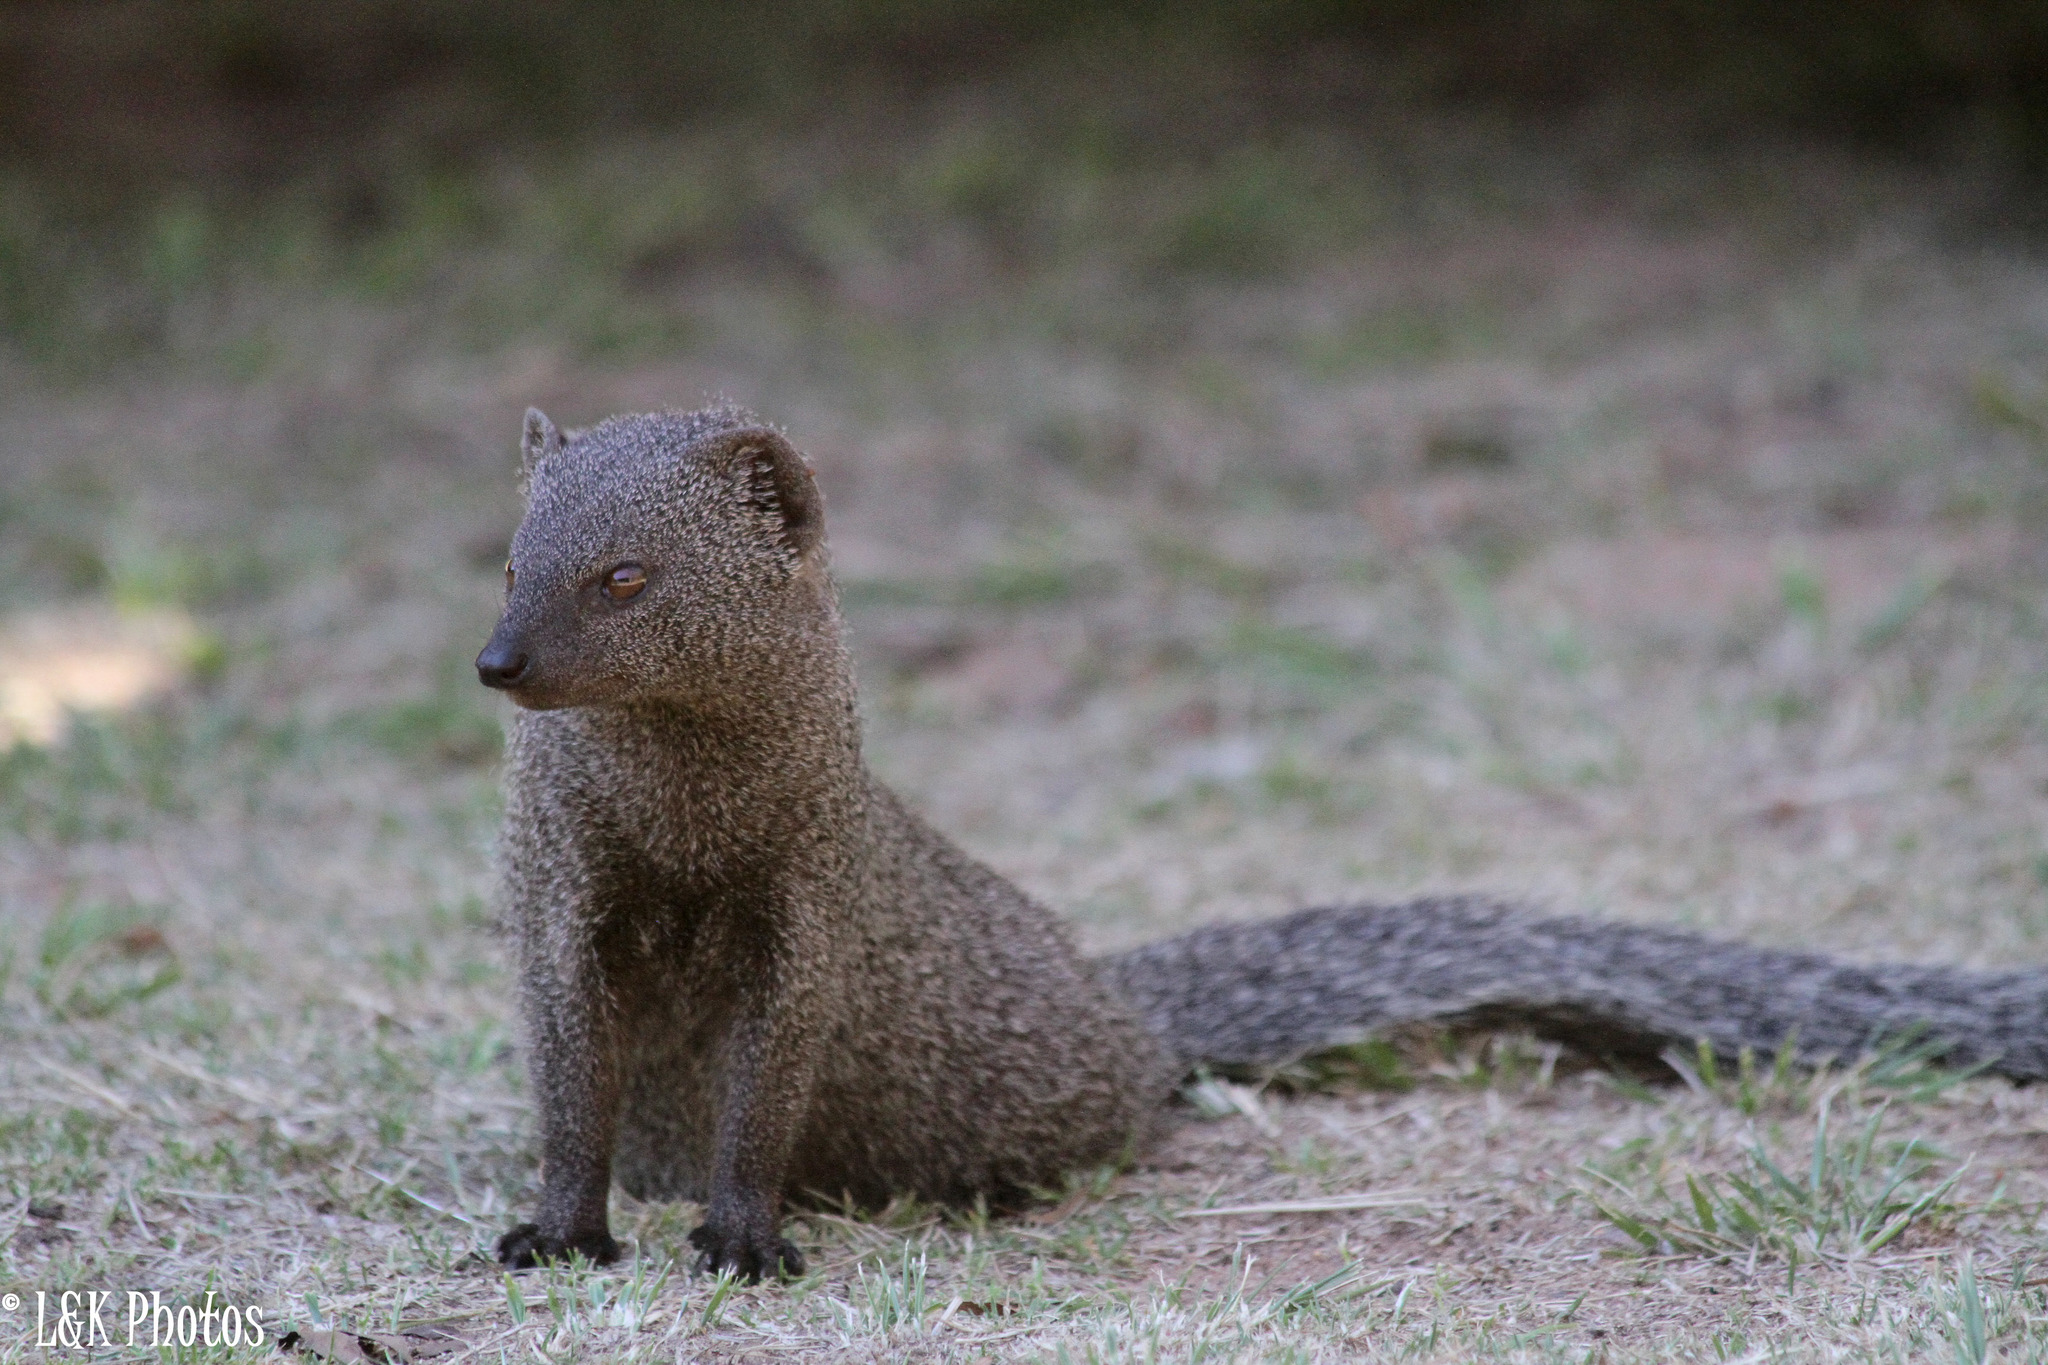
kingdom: Animalia
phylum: Chordata
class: Mammalia
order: Carnivora
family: Herpestidae
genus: Galerella
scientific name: Galerella pulverulenta
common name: Cape gray mongoose
